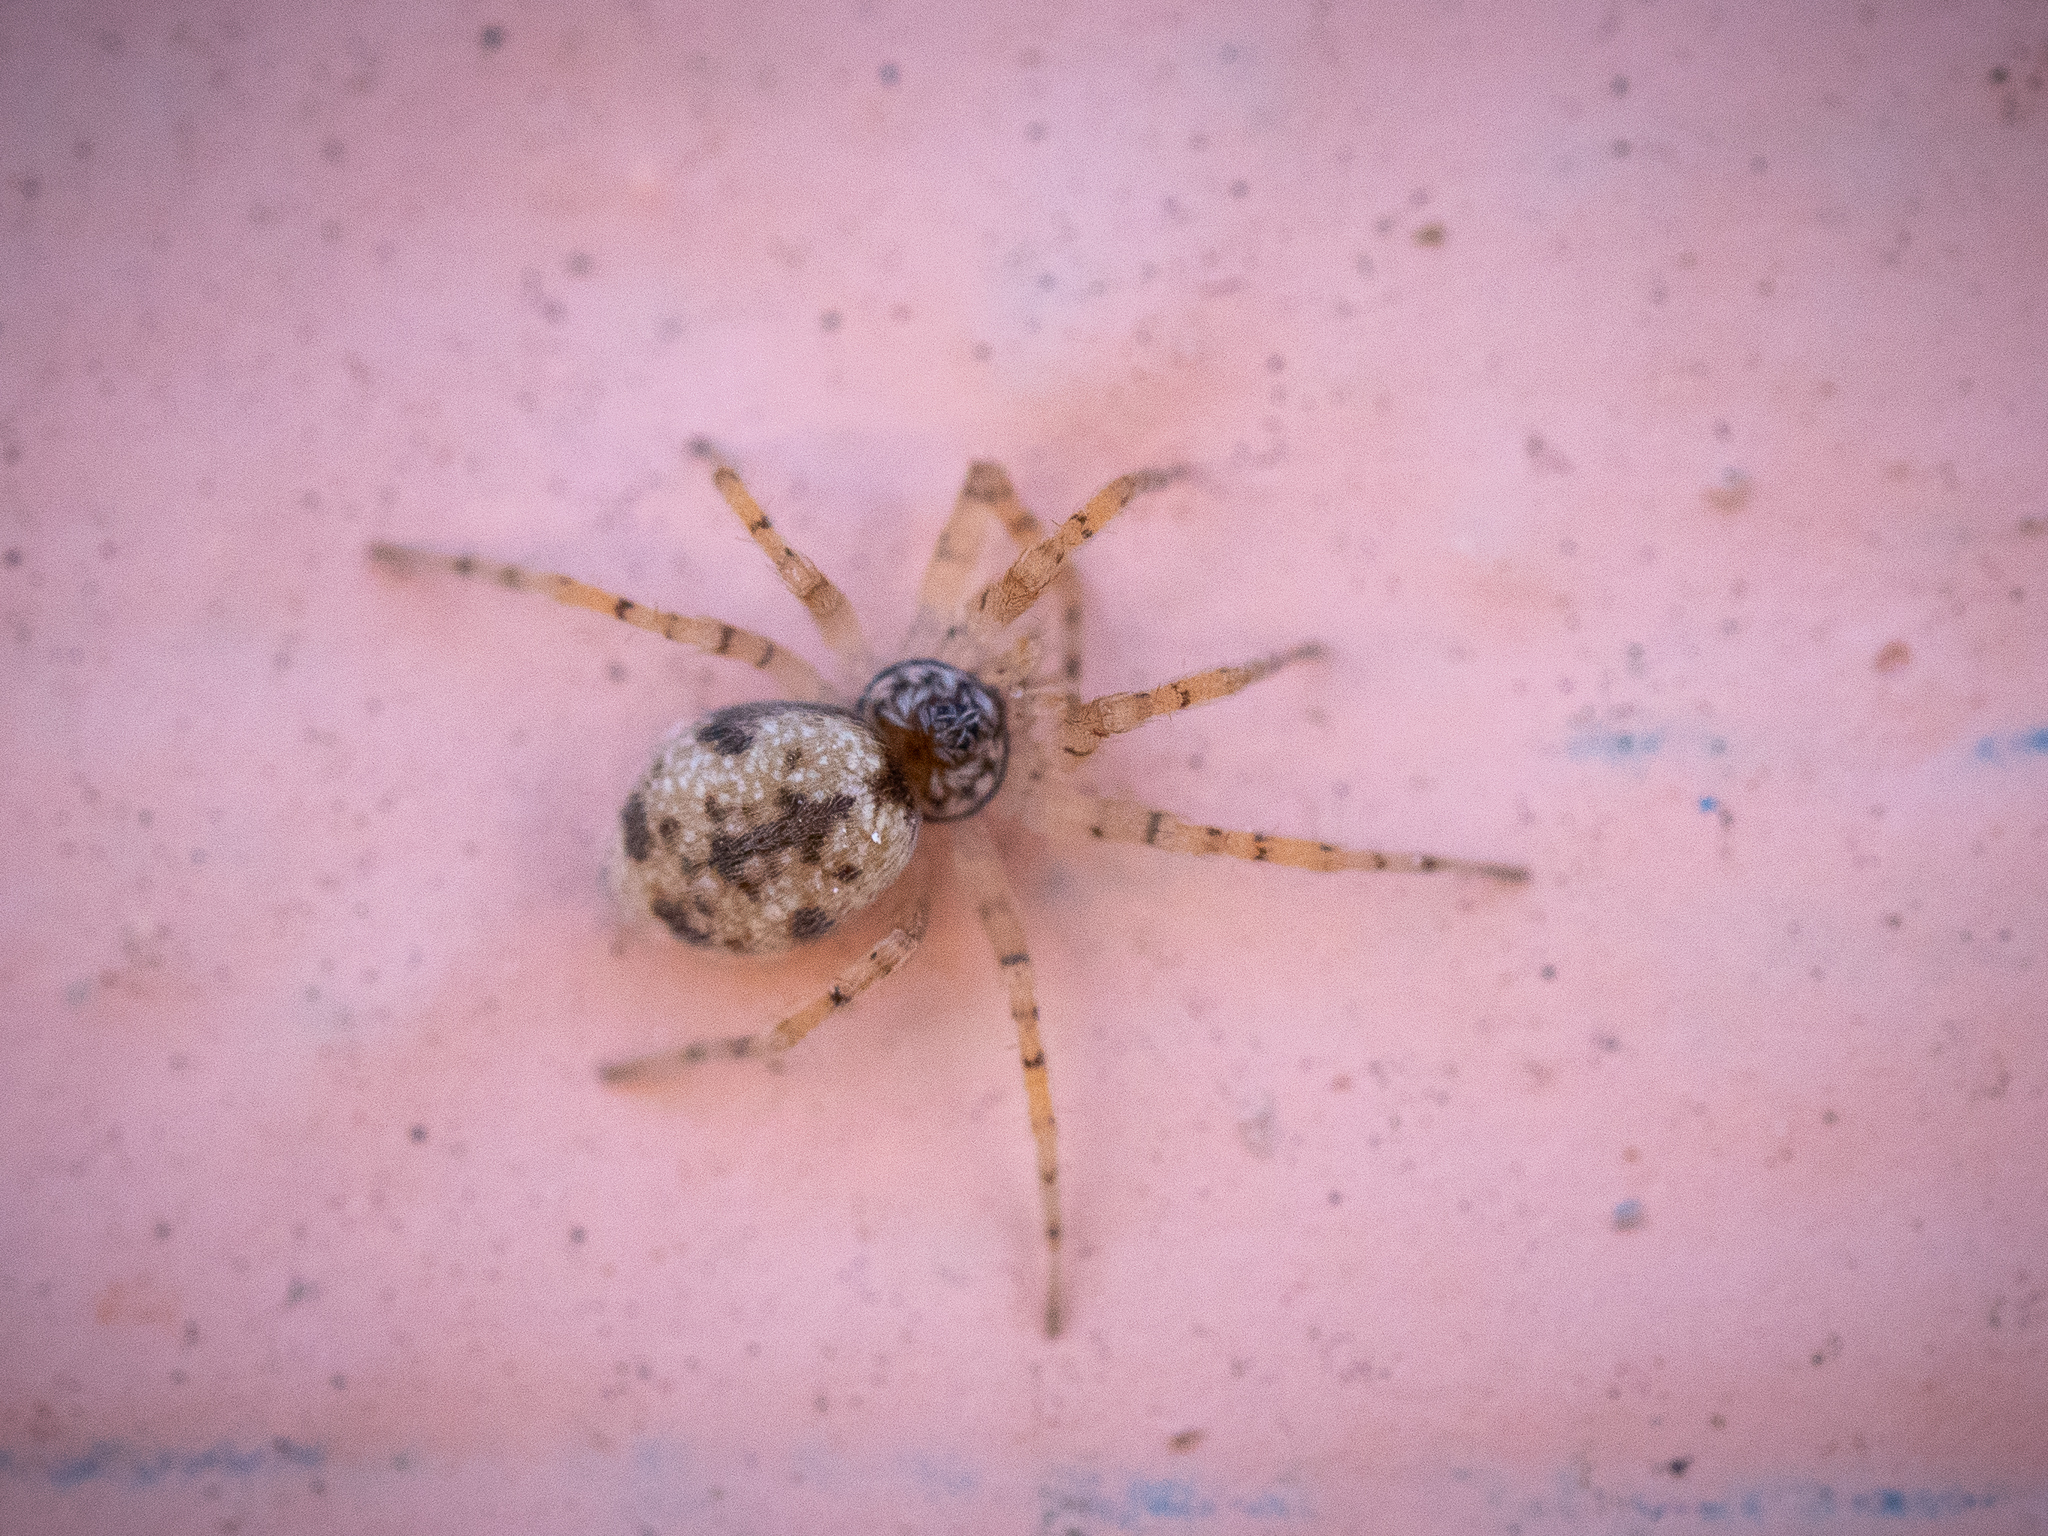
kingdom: Animalia
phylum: Arthropoda
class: Arachnida
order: Araneae
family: Oecobiidae
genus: Oecobius
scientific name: Oecobius maculatus
